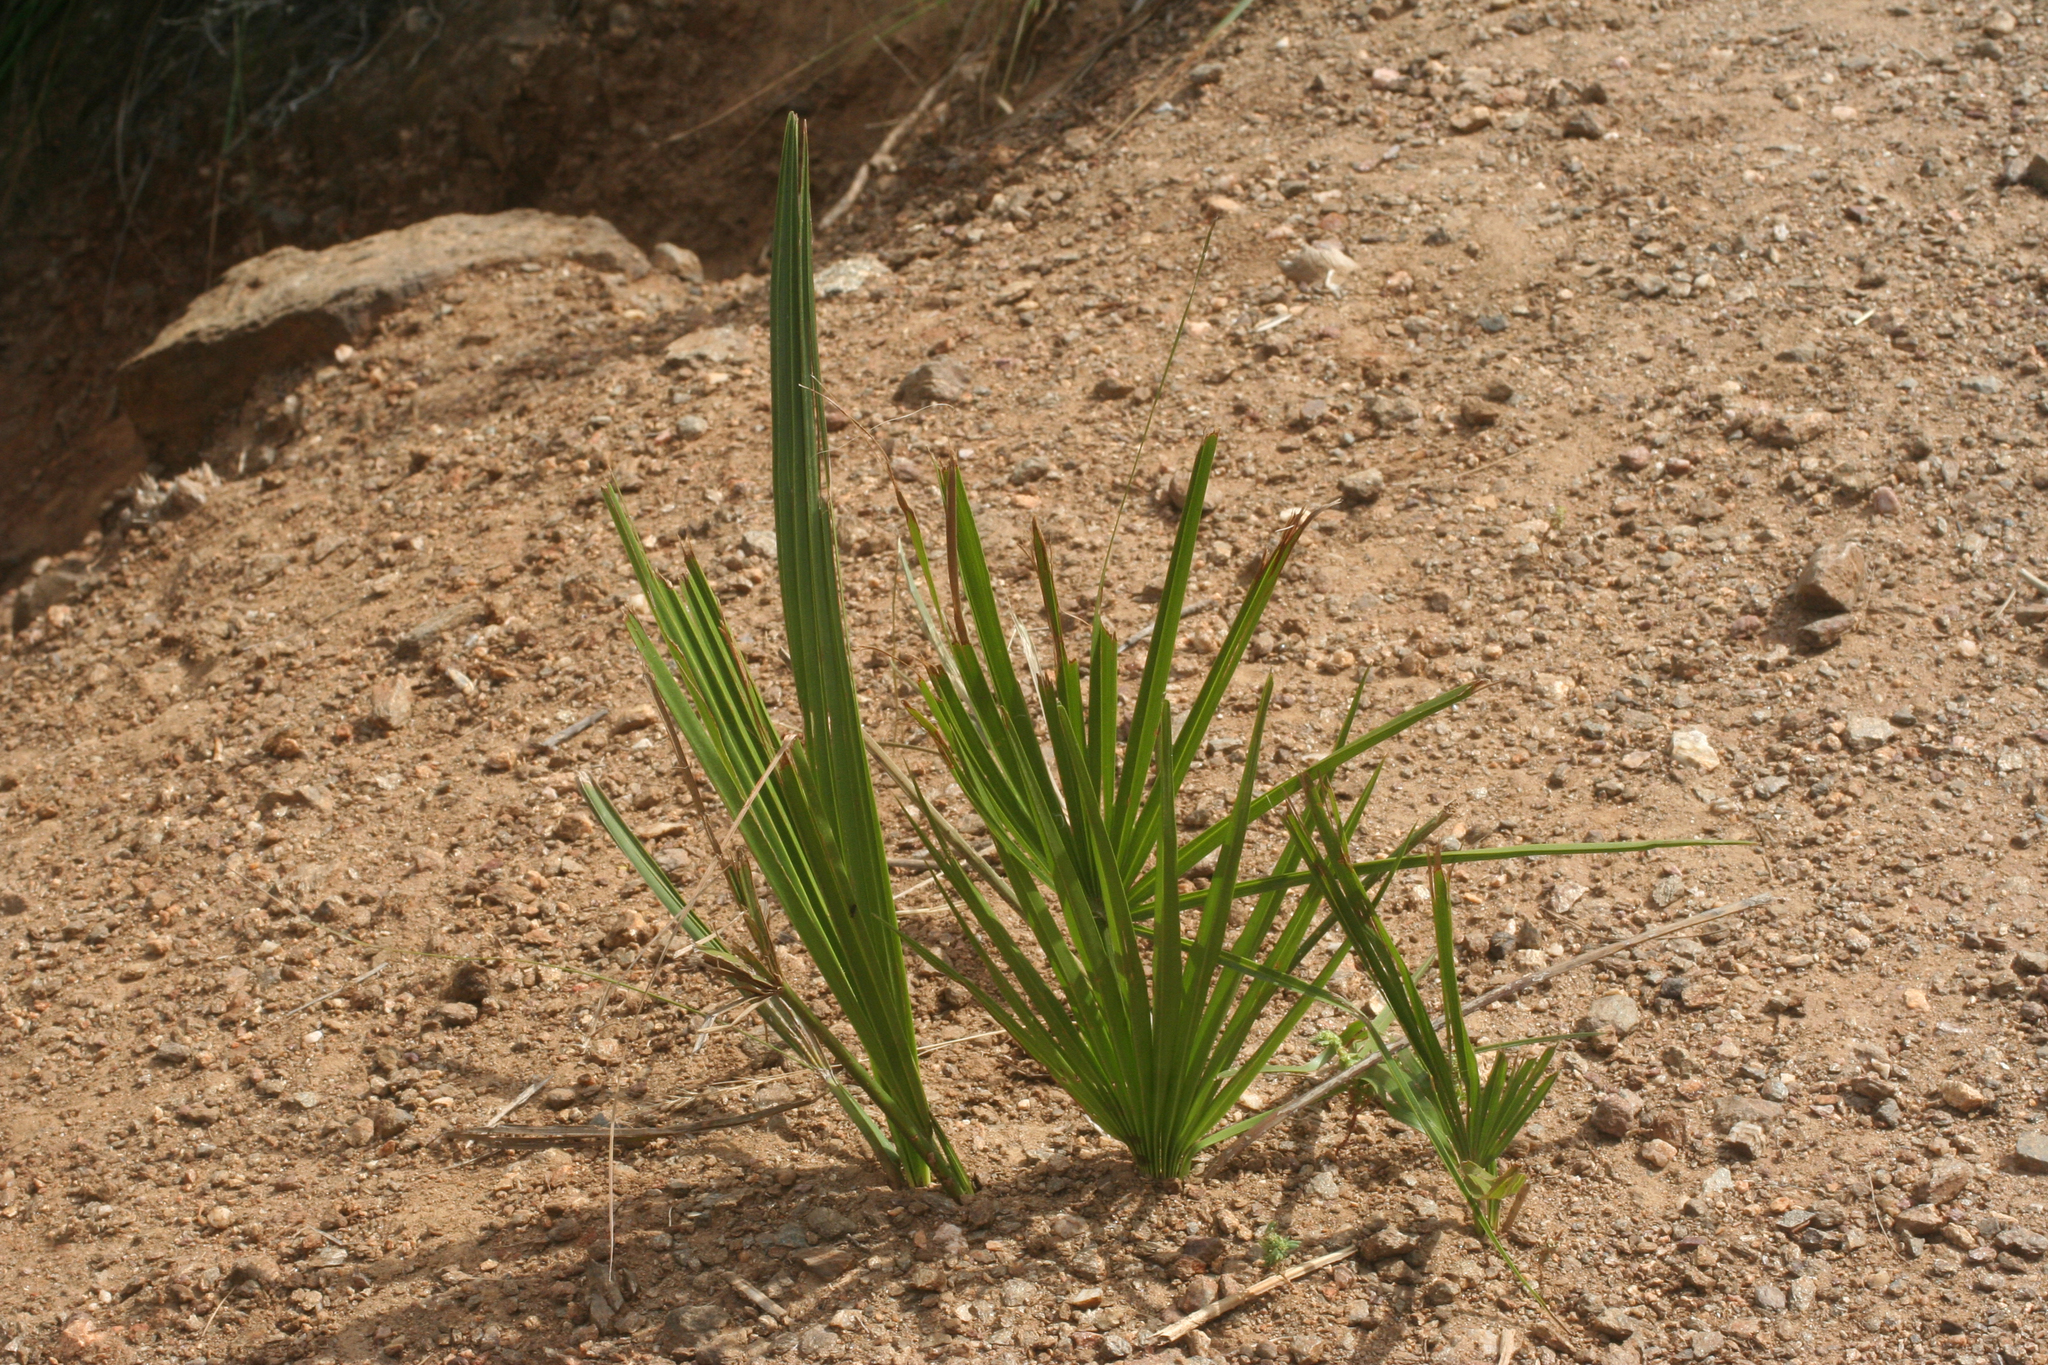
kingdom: Plantae
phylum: Tracheophyta
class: Liliopsida
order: Arecales
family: Arecaceae
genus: Chamaerops
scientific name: Chamaerops humilis
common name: Dwarf fan palm
